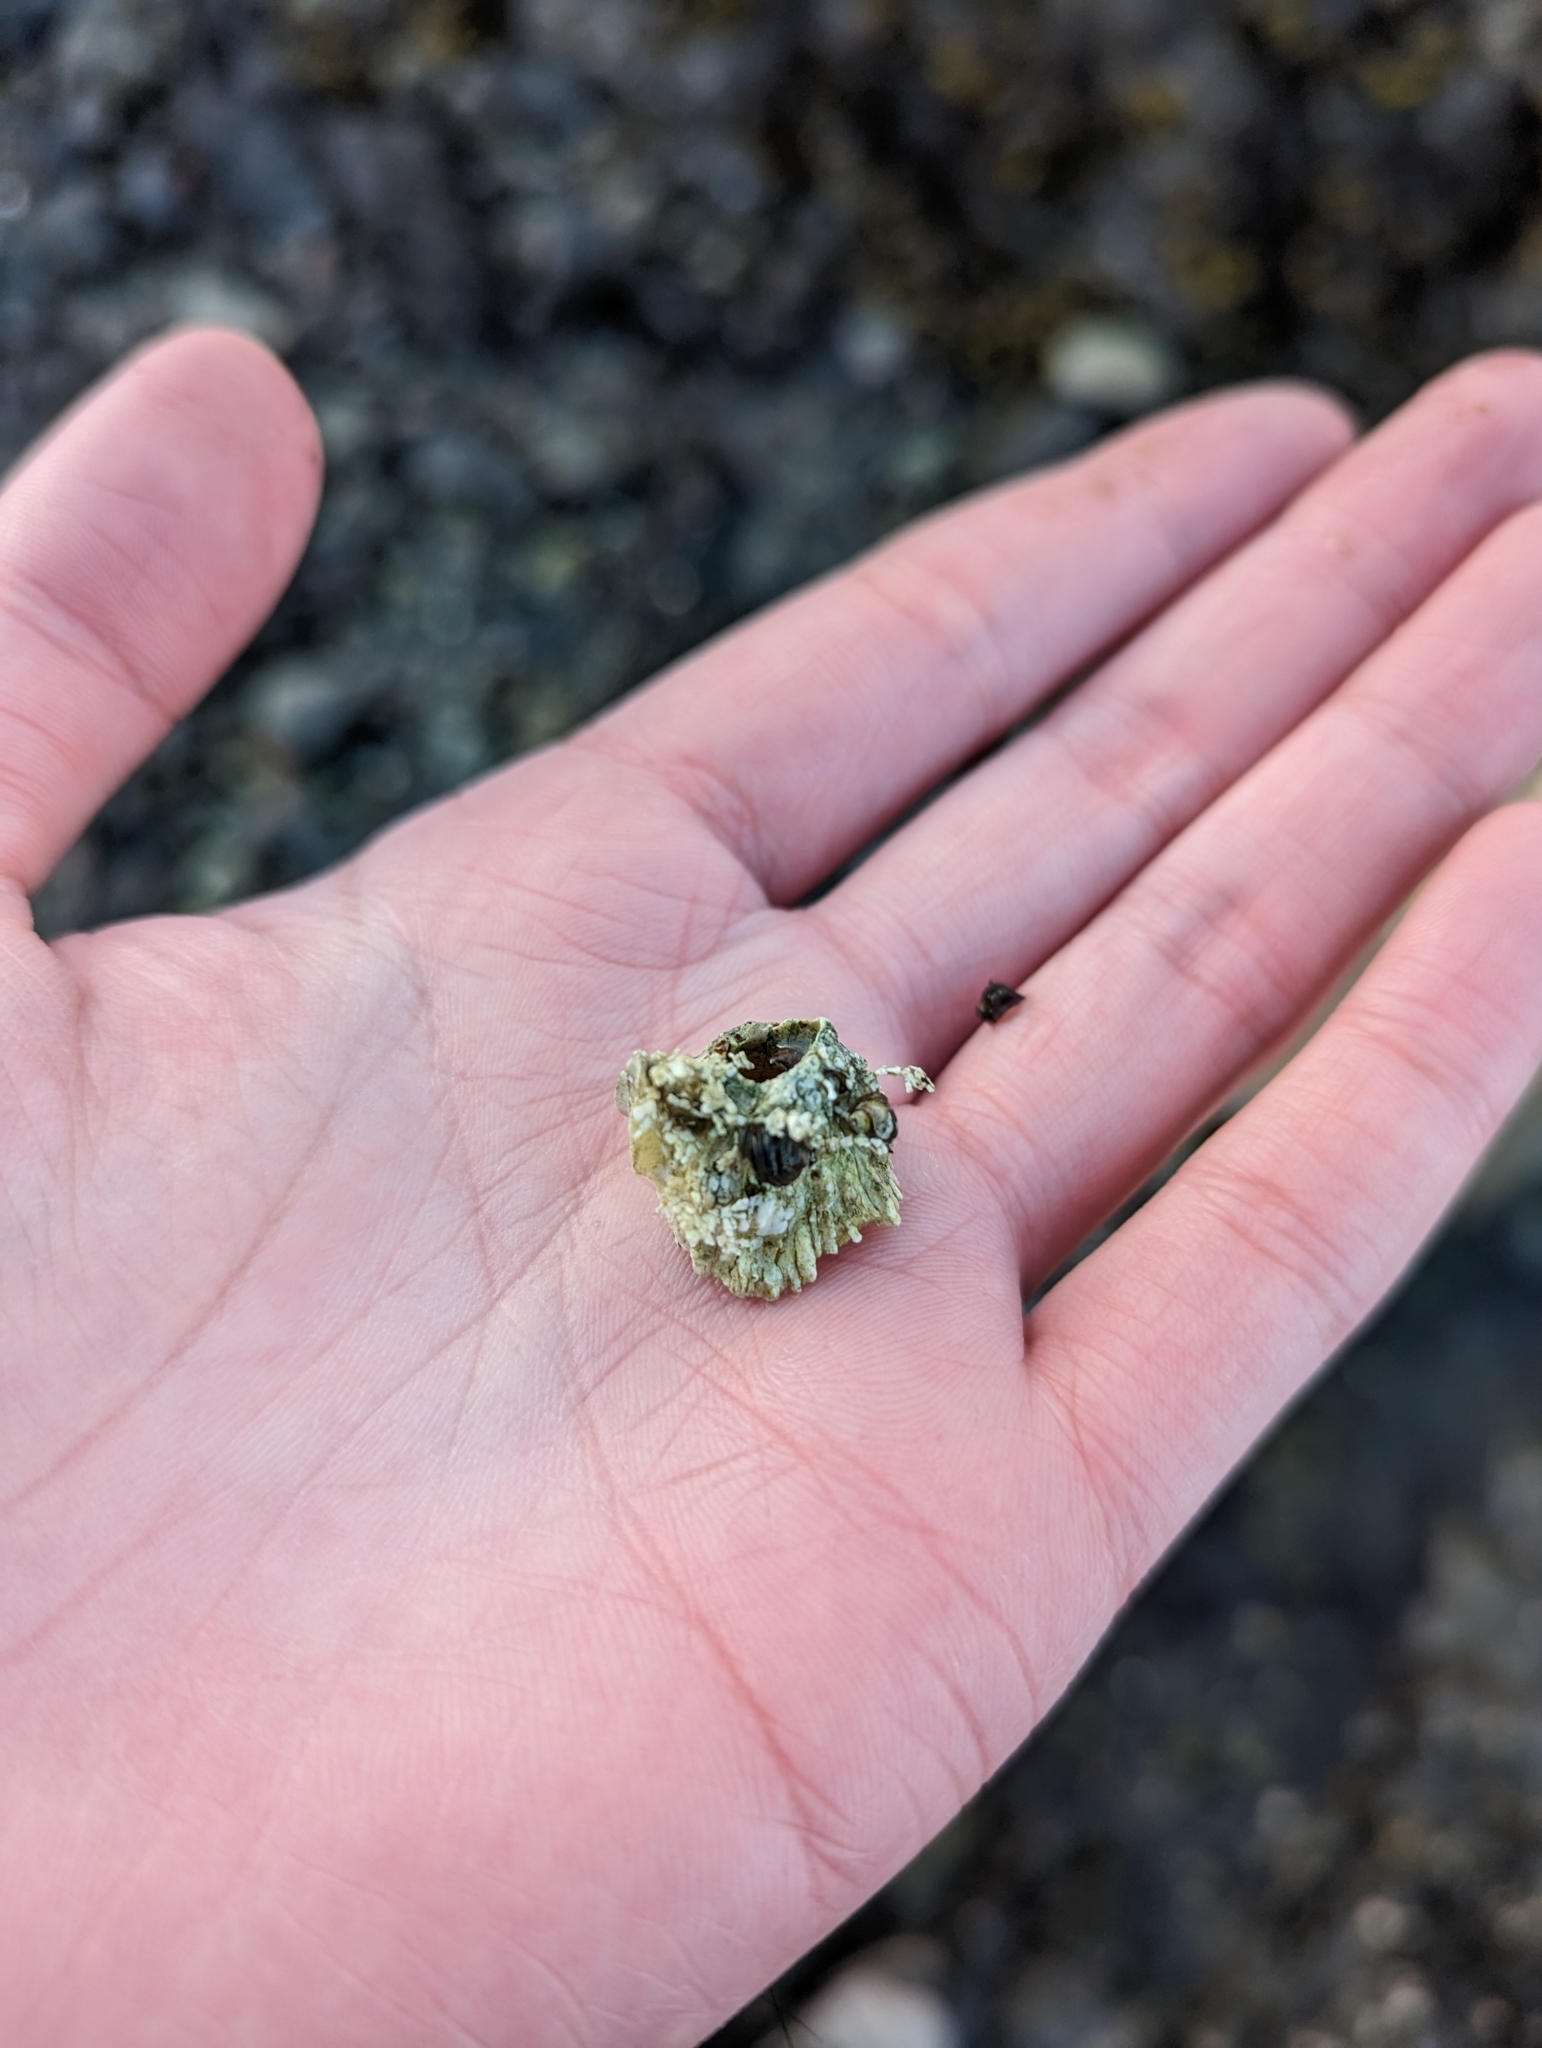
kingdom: Animalia
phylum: Arthropoda
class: Maxillopoda
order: Sessilia
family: Archaeobalanidae
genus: Semibalanus
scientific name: Semibalanus cariosus
